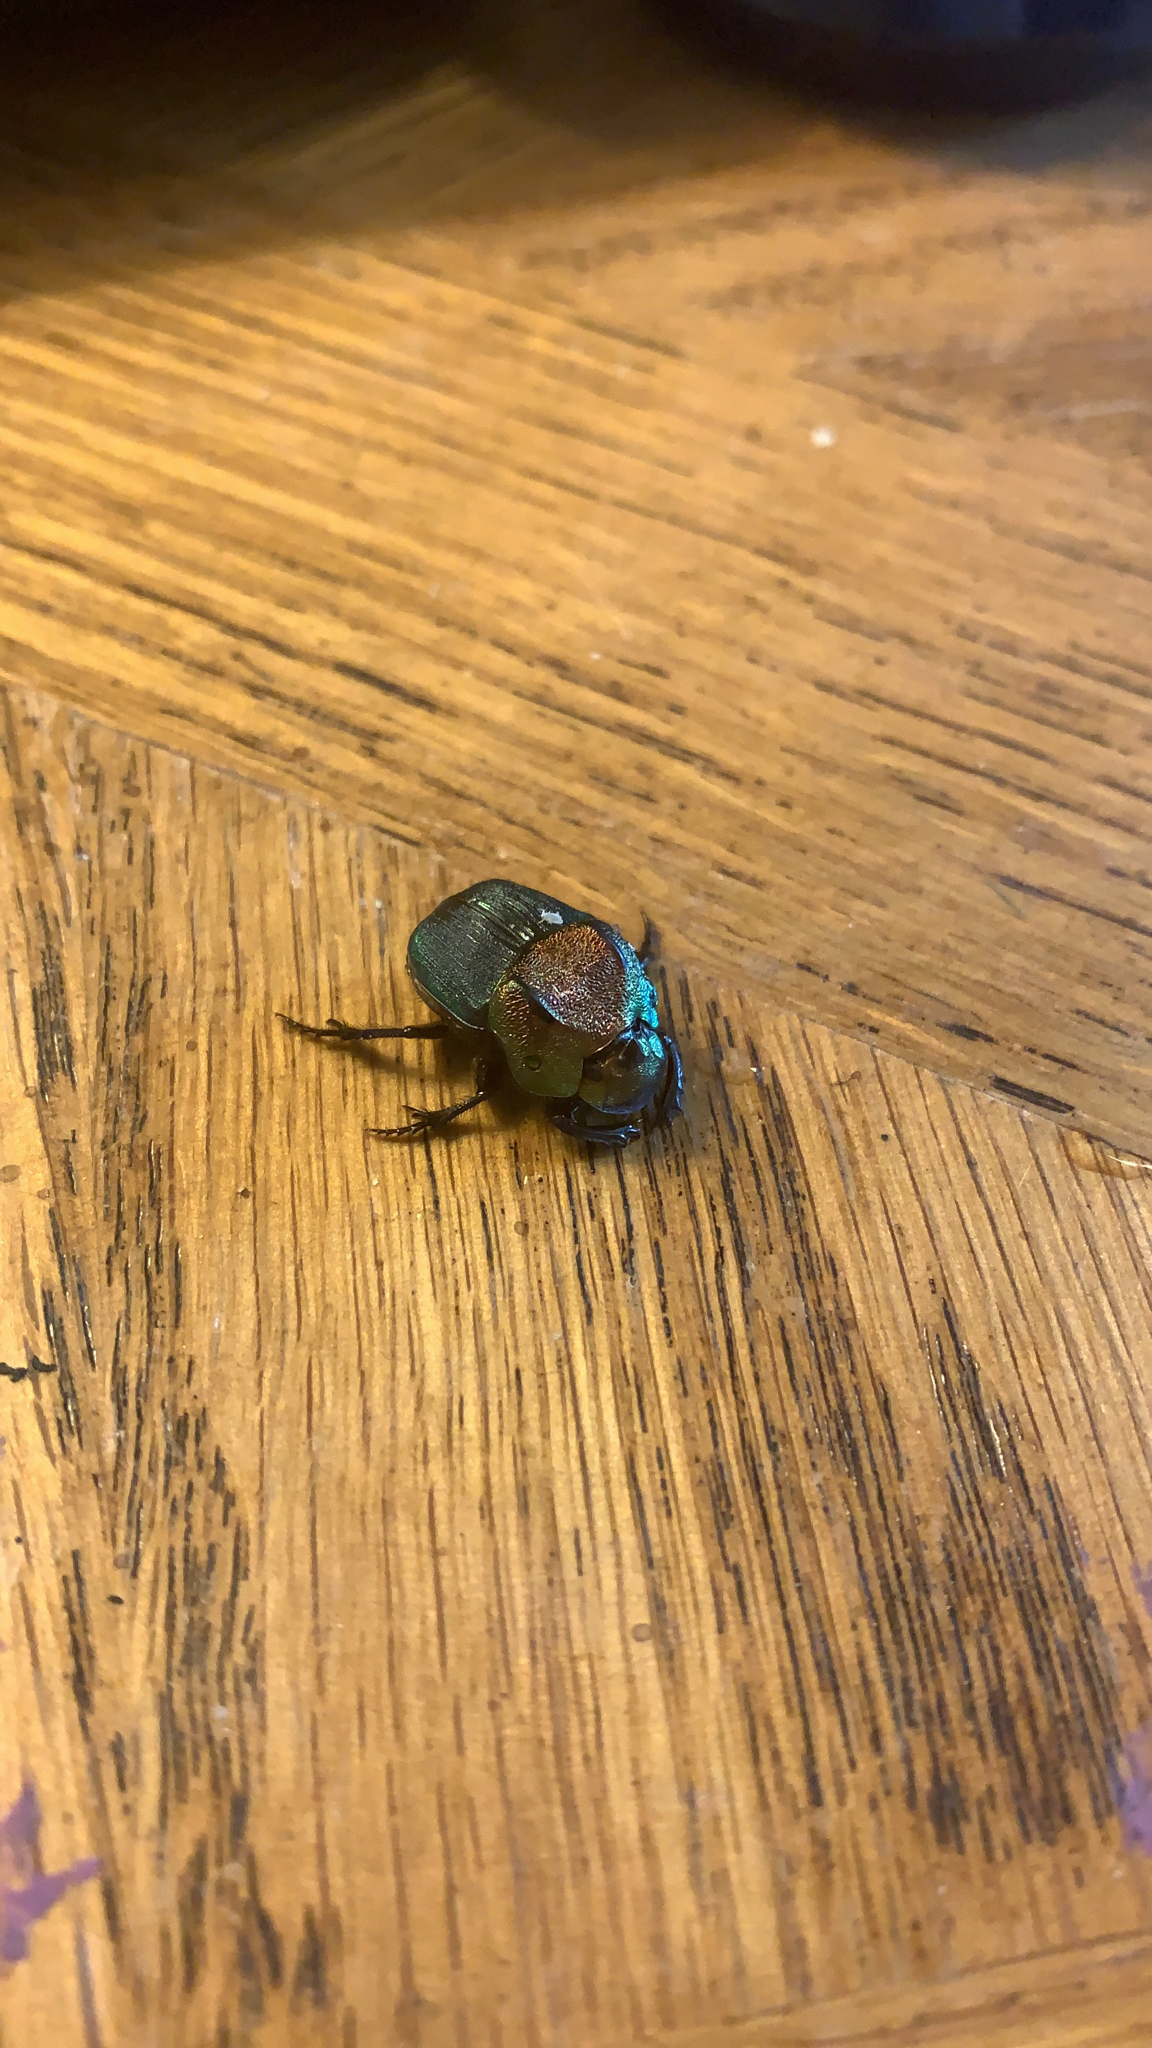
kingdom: Animalia
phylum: Arthropoda
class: Insecta
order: Coleoptera
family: Scarabaeidae
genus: Phanaeus
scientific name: Phanaeus vindex
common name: Rainbow scarab
